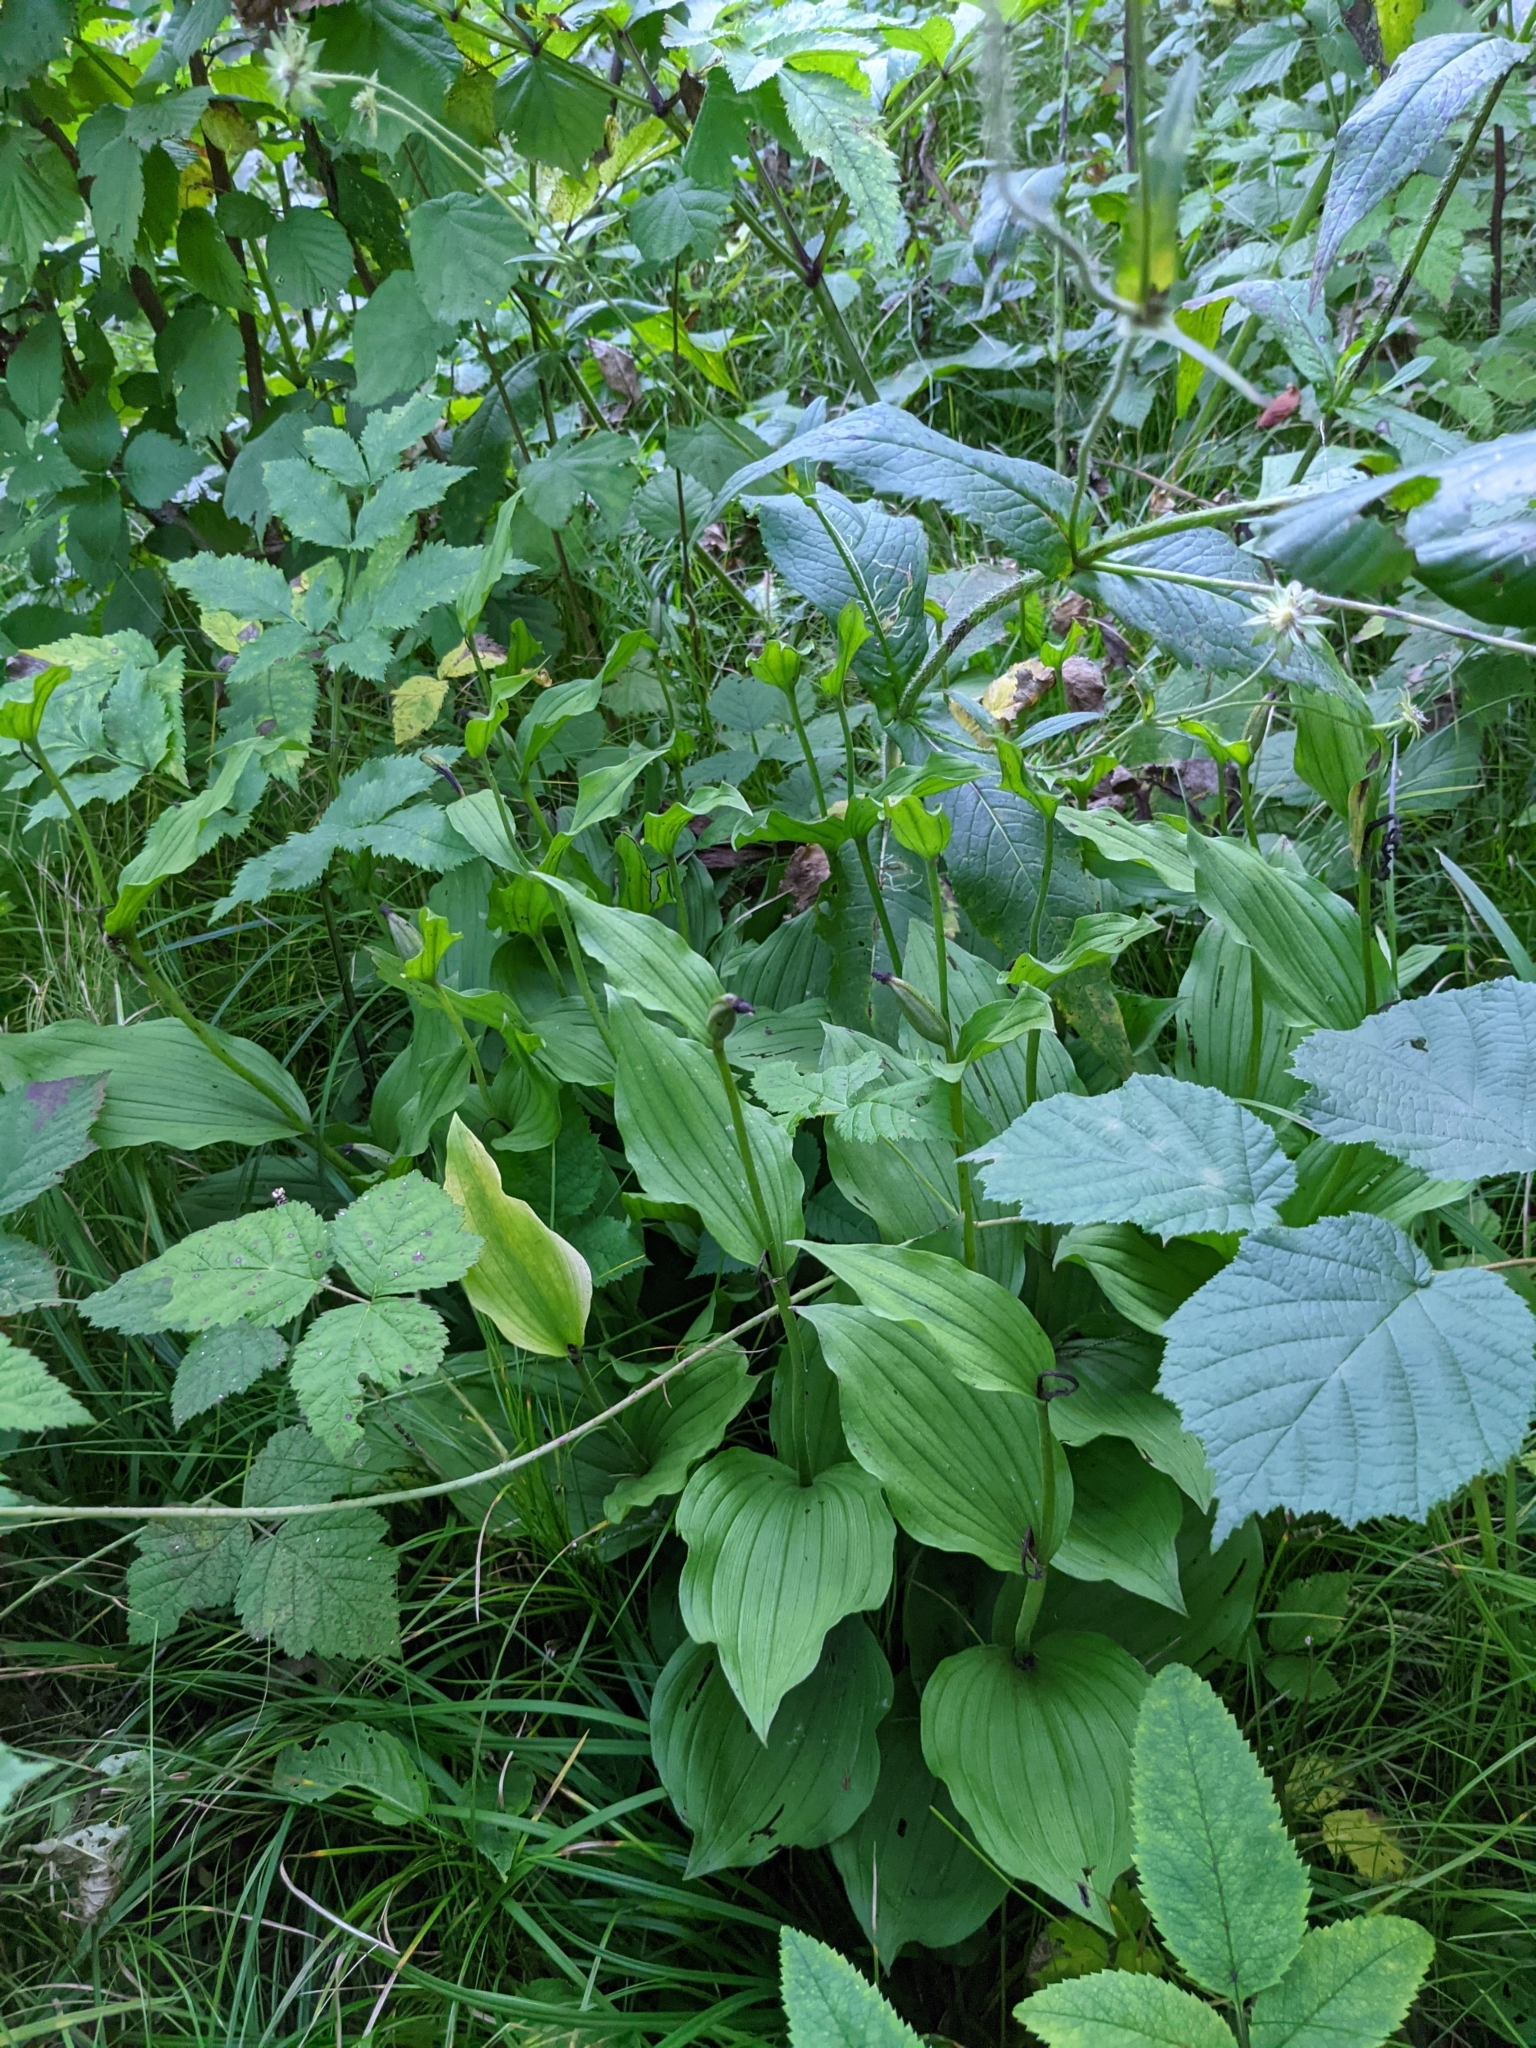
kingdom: Plantae
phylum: Tracheophyta
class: Liliopsida
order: Asparagales
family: Orchidaceae
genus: Cypripedium
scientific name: Cypripedium calceolus
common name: Lady's-slipper
